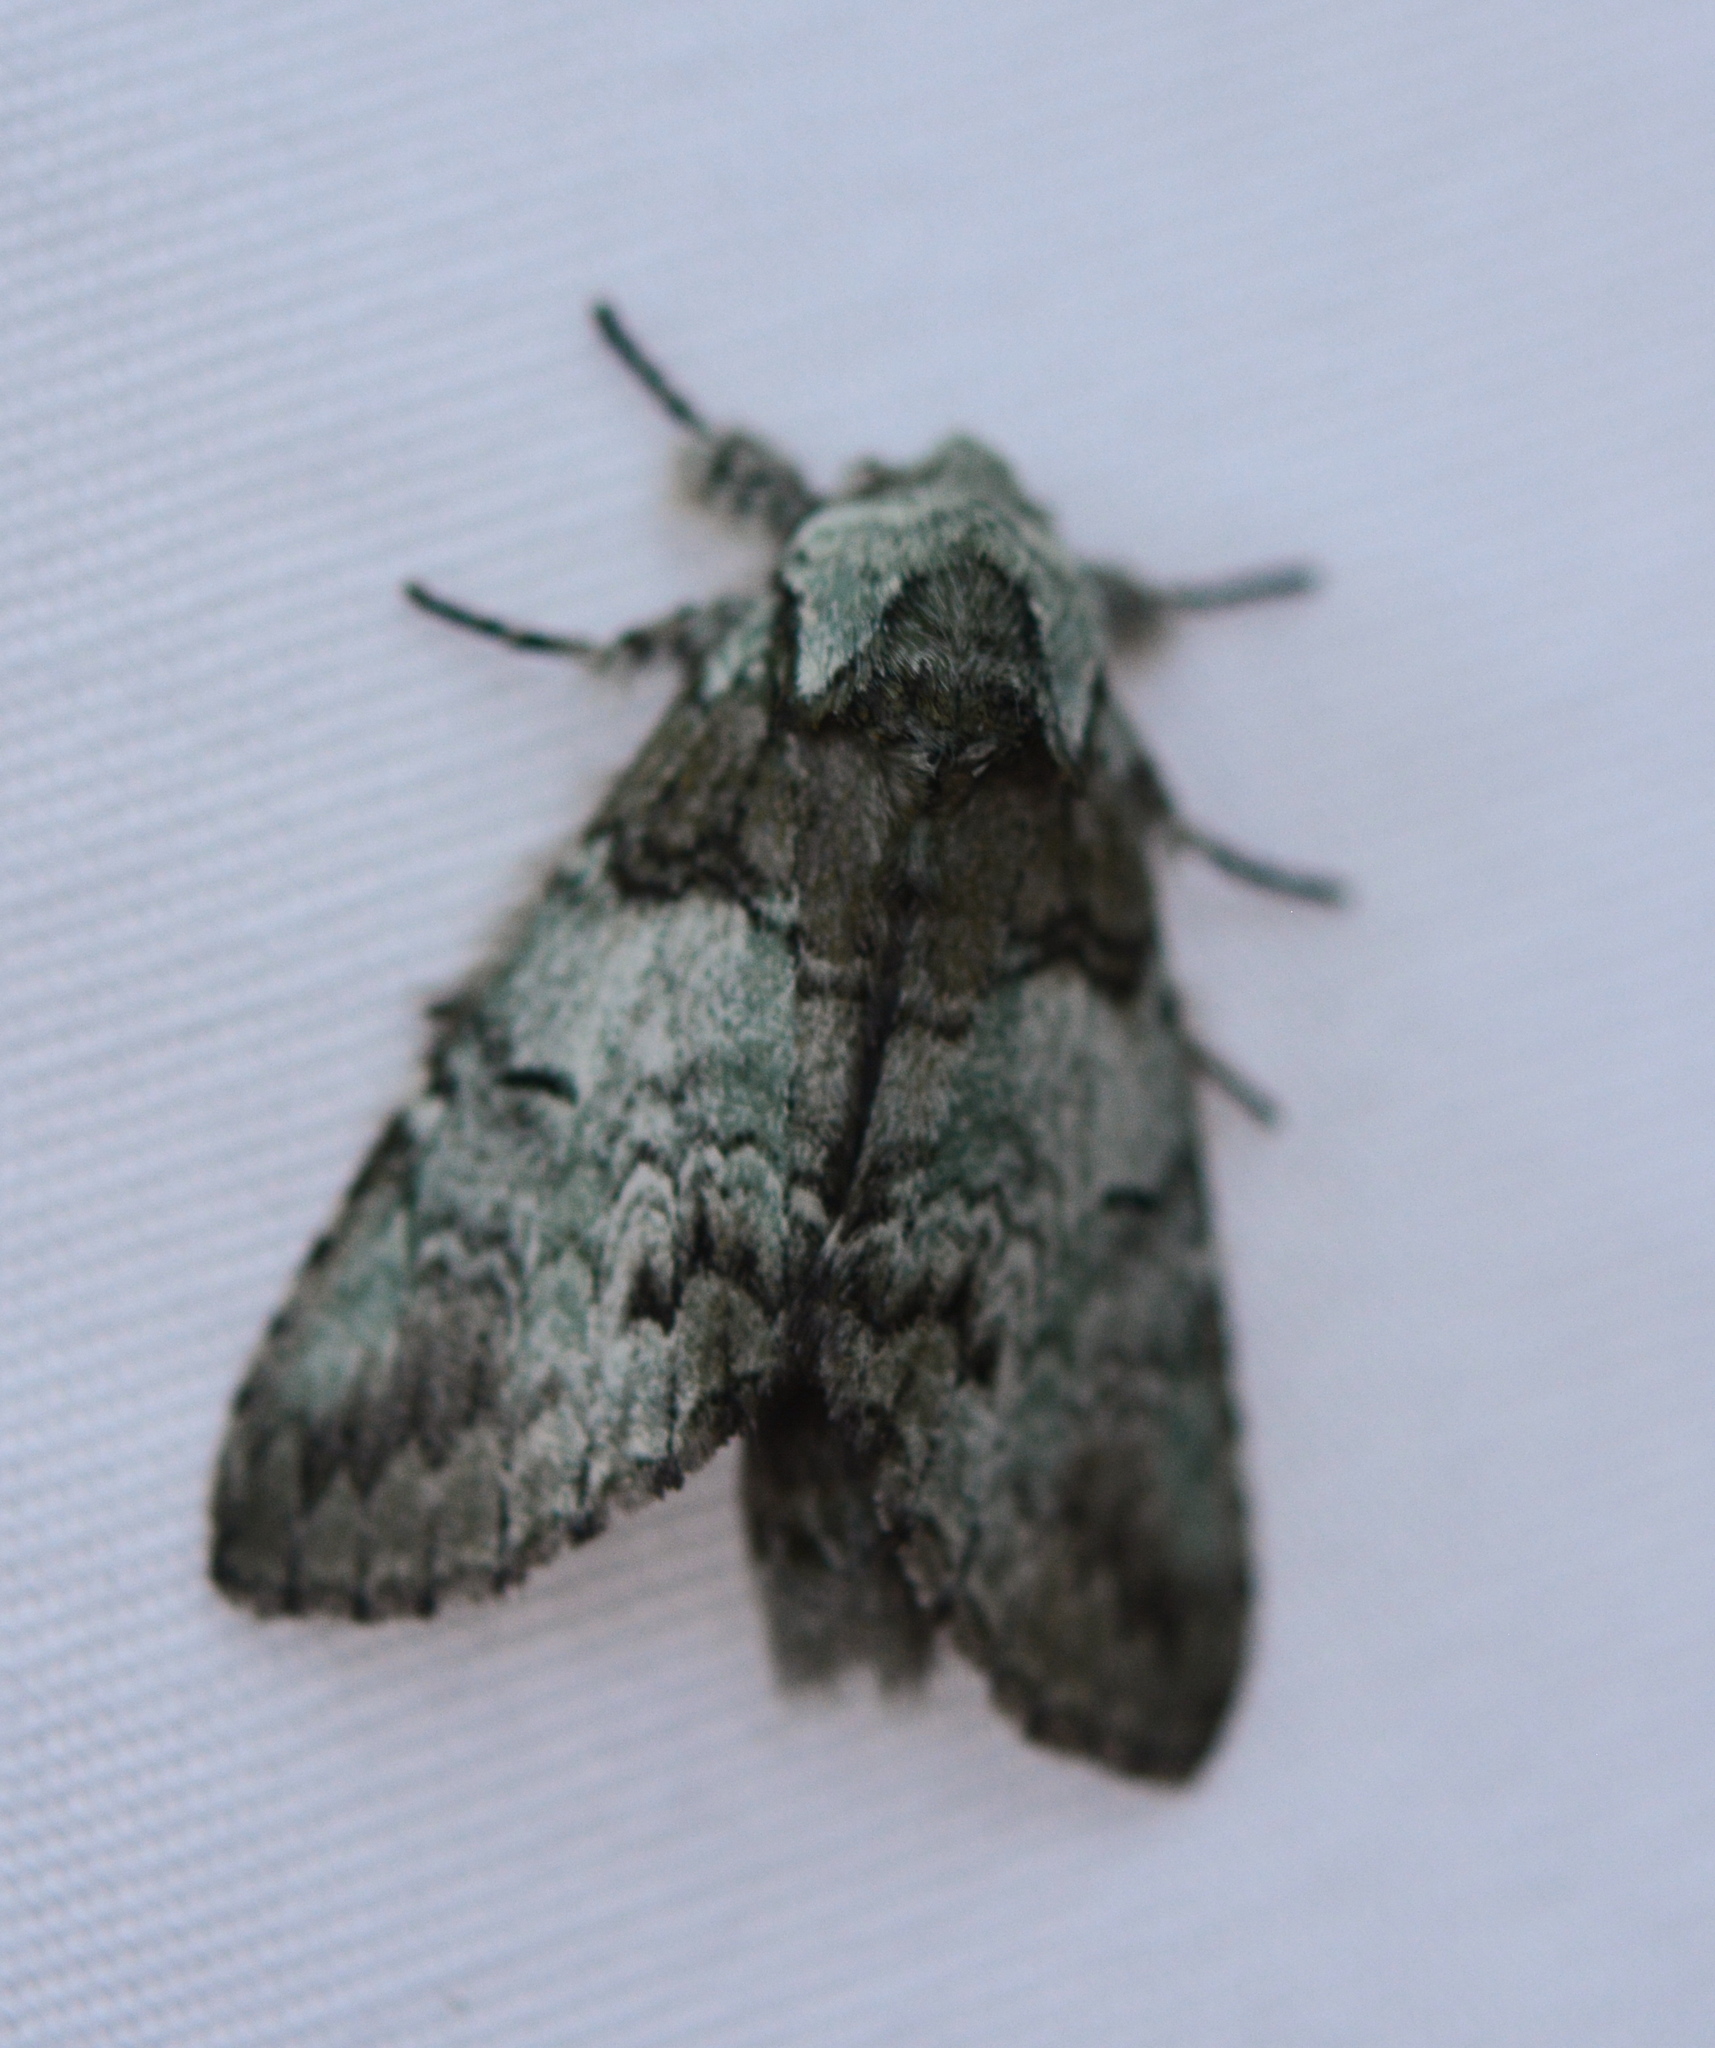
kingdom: Animalia
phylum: Arthropoda
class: Insecta
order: Lepidoptera
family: Notodontidae
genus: Macrurocampa
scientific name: Macrurocampa marthesia
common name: Mottled prominent
